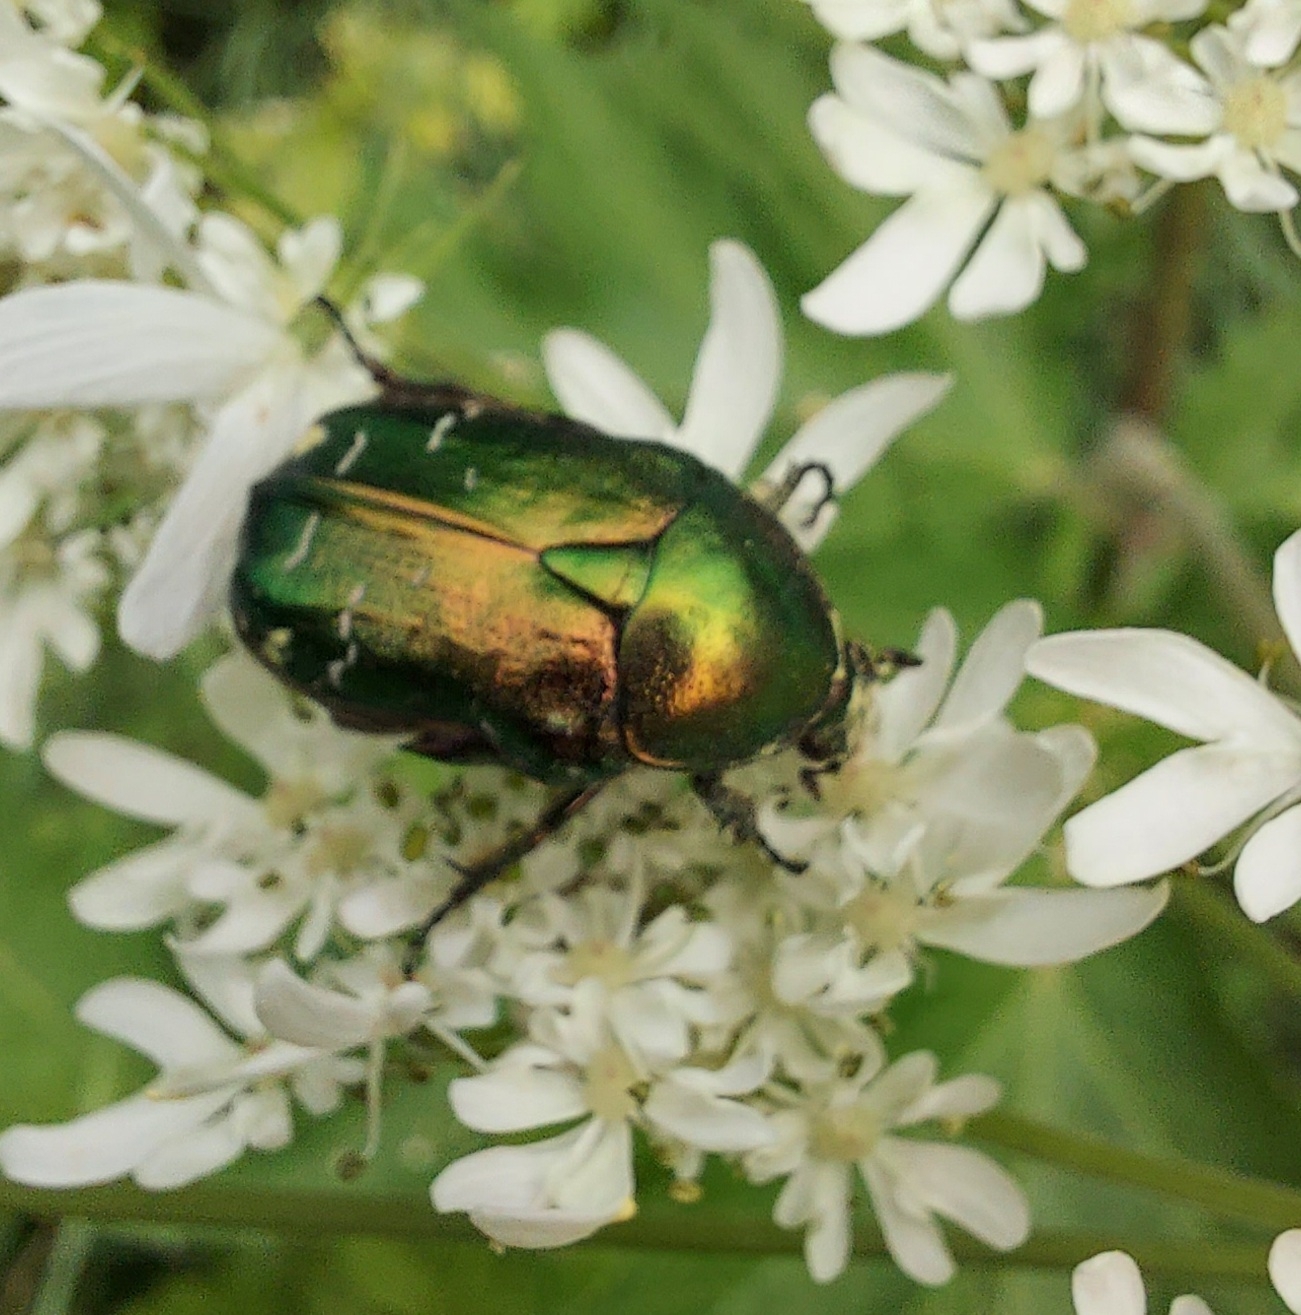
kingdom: Animalia
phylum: Arthropoda
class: Insecta
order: Coleoptera
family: Scarabaeidae
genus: Cetonia
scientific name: Cetonia aurata
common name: Rose chafer
